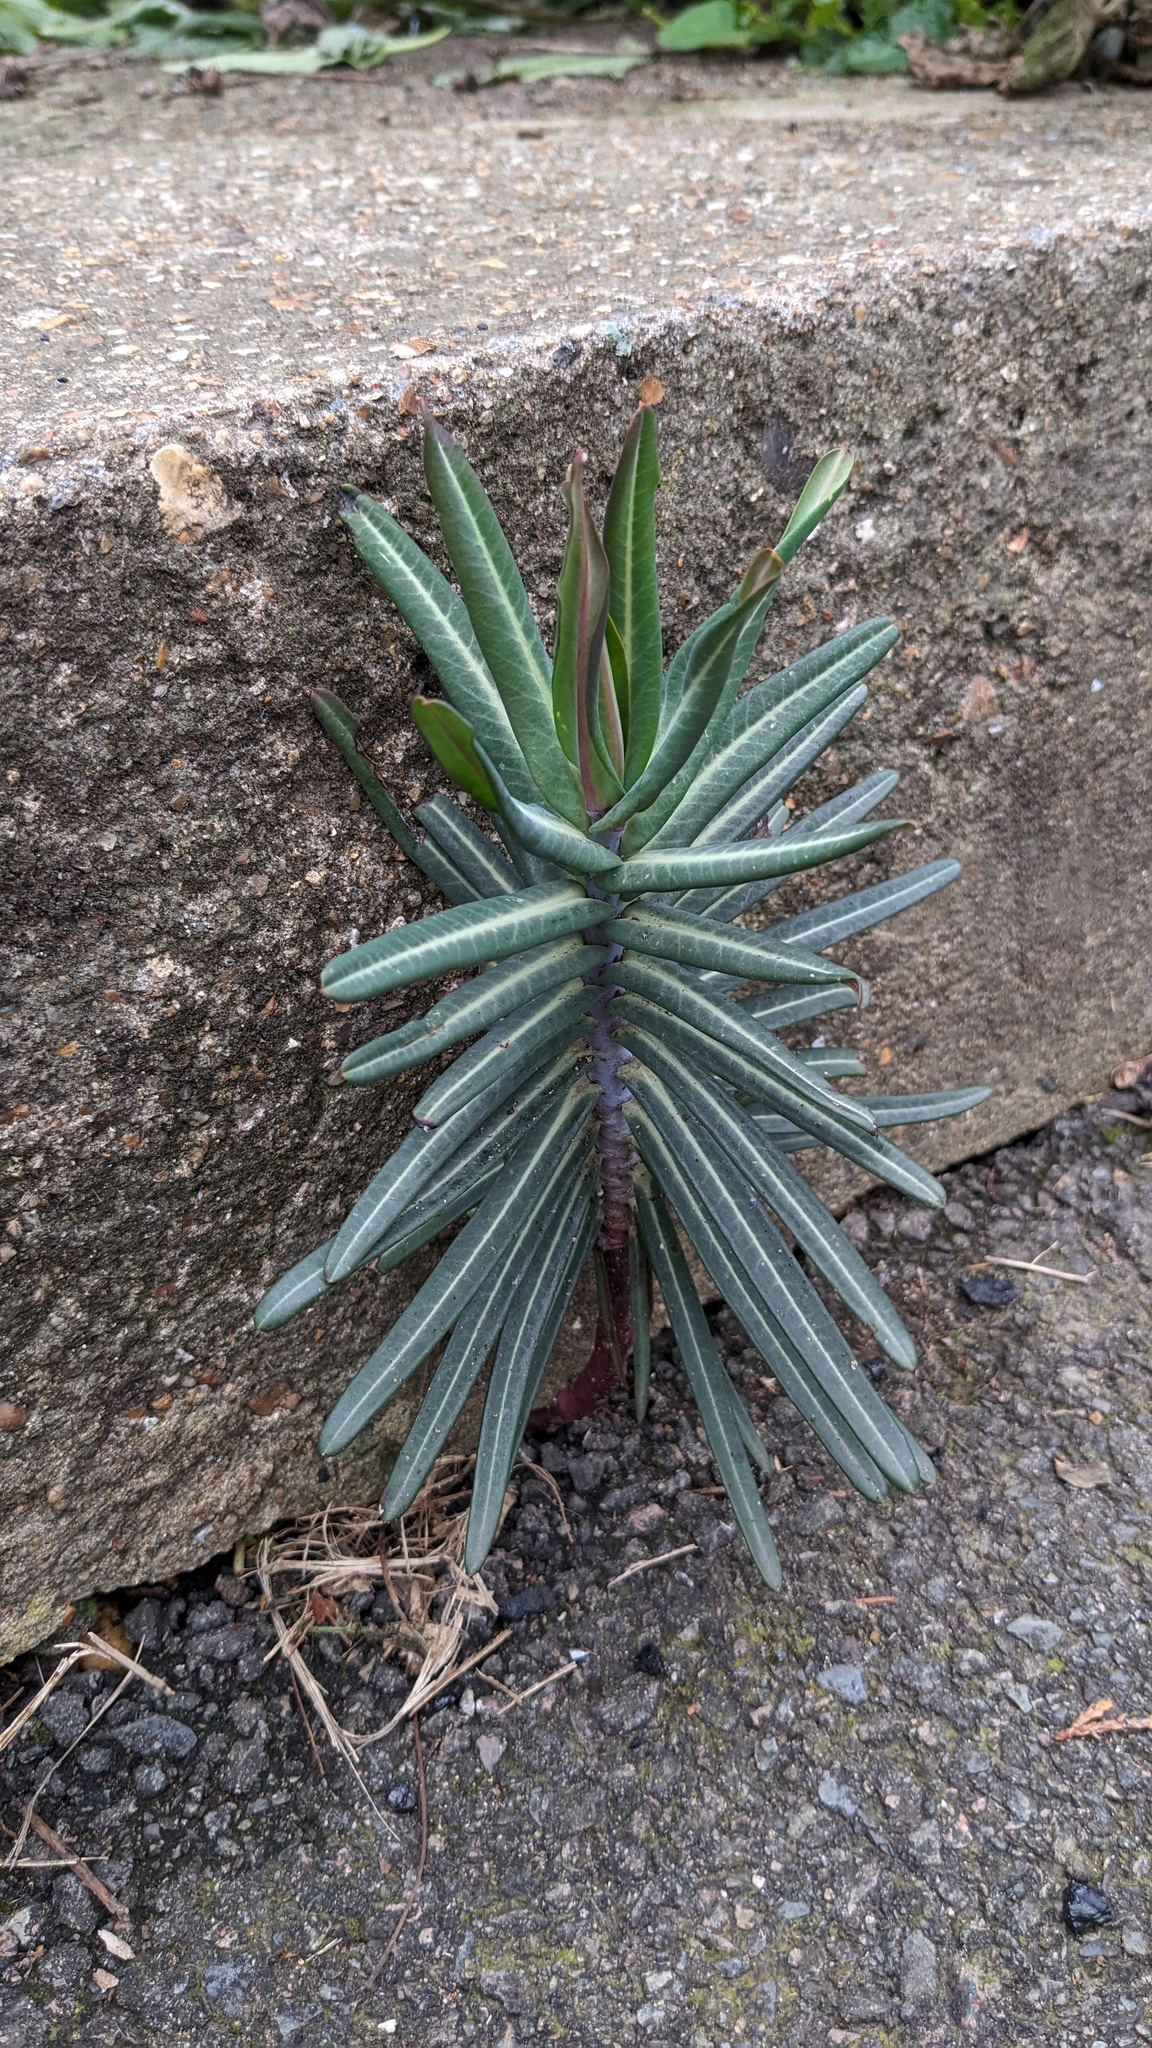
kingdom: Plantae
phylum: Tracheophyta
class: Magnoliopsida
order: Malpighiales
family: Euphorbiaceae
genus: Euphorbia
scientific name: Euphorbia lathyris
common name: Caper spurge
